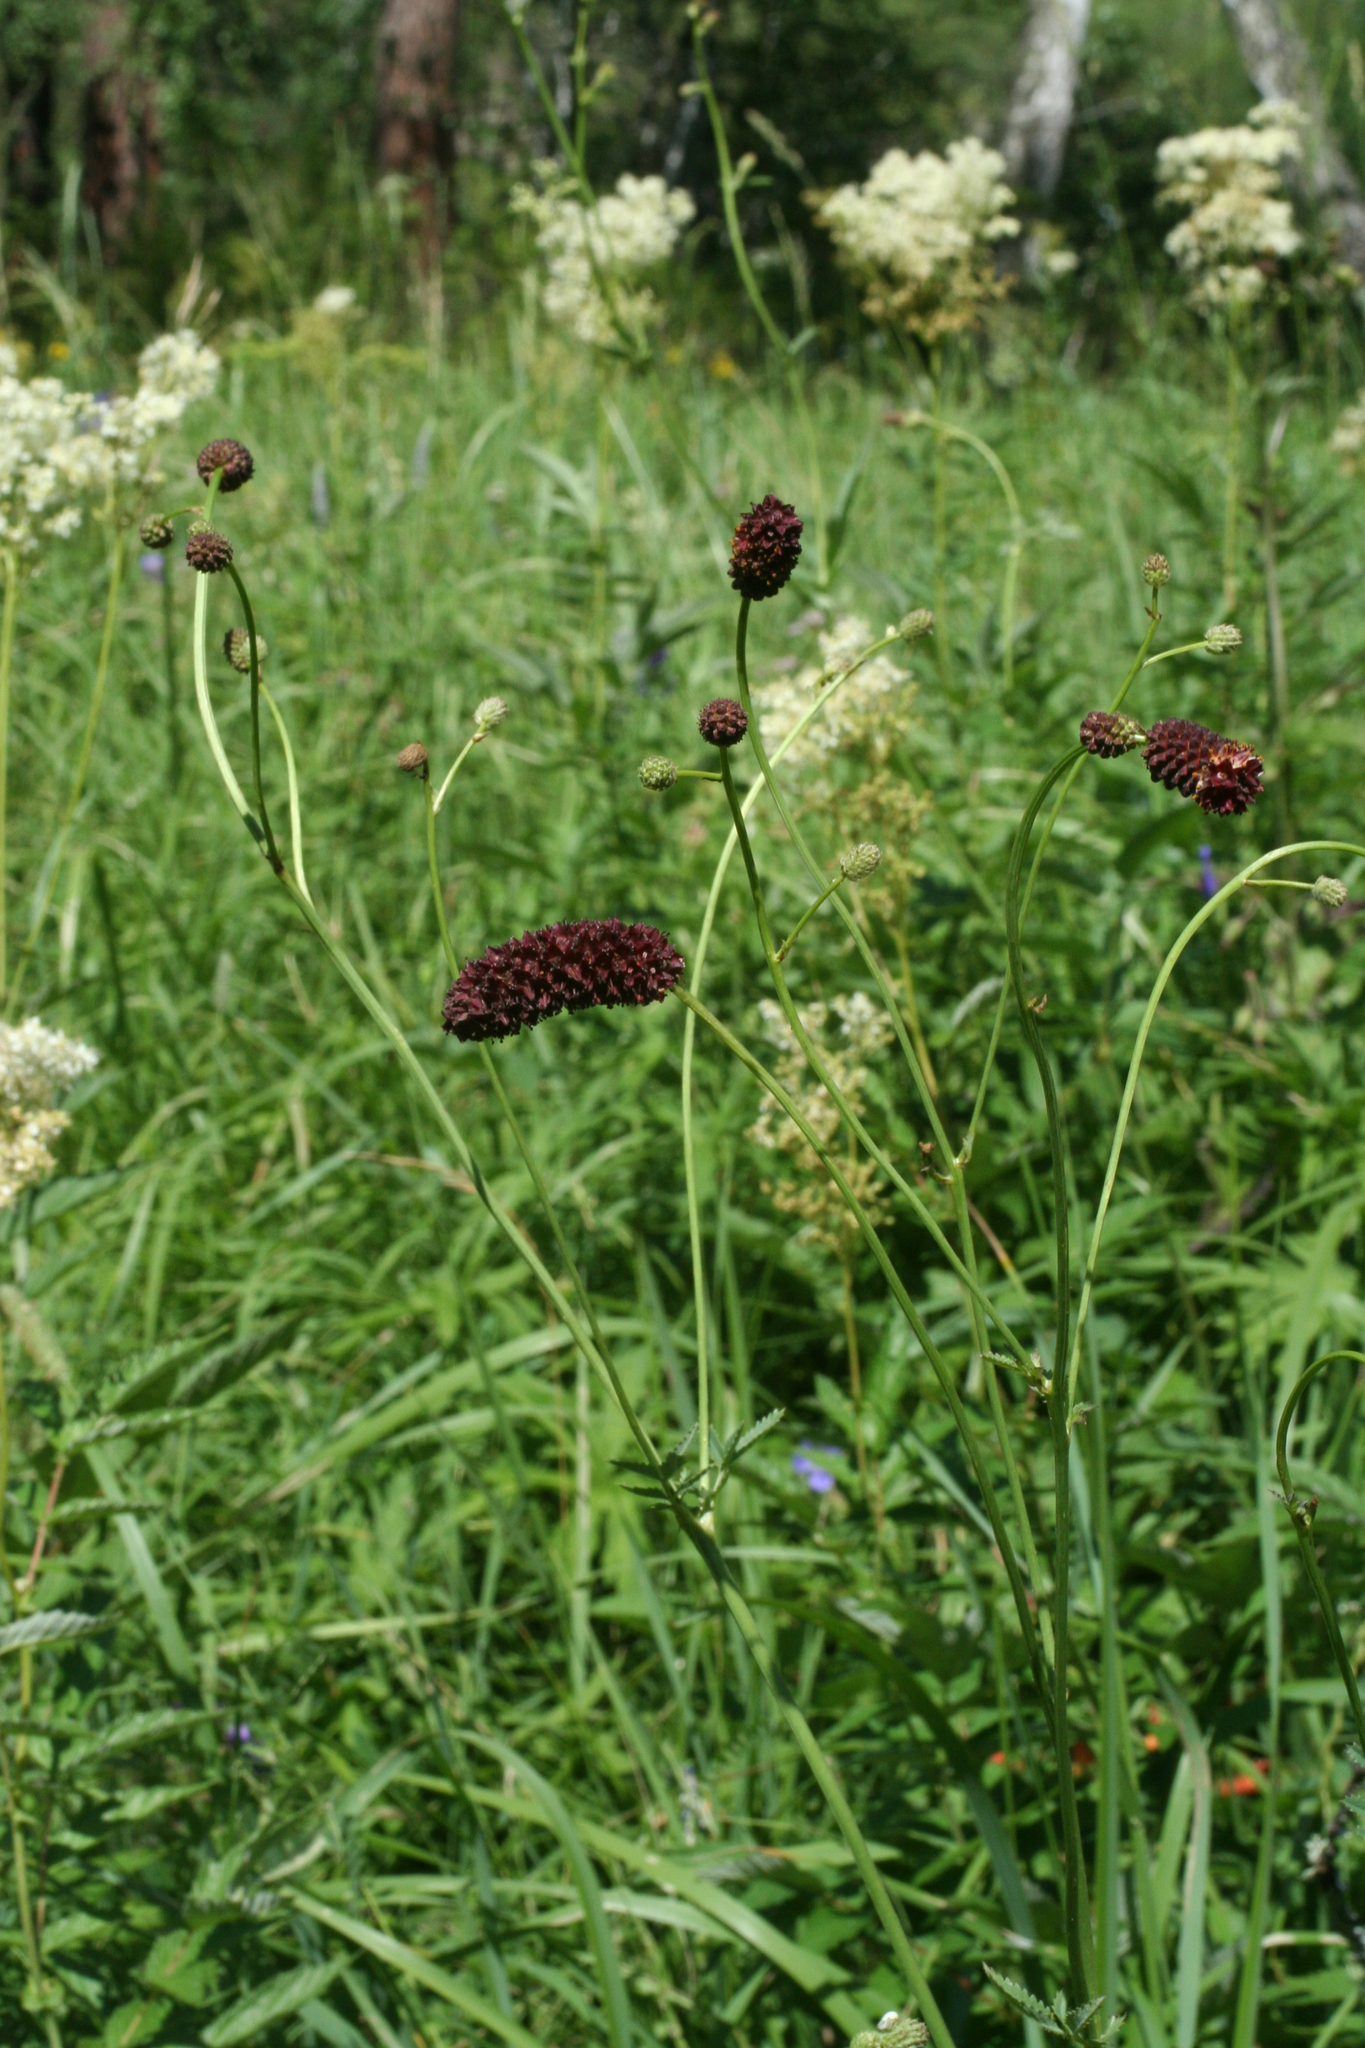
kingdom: Plantae
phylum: Tracheophyta
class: Magnoliopsida
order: Rosales
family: Rosaceae
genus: Sanguisorba
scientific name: Sanguisorba officinalis
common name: Great burnet
